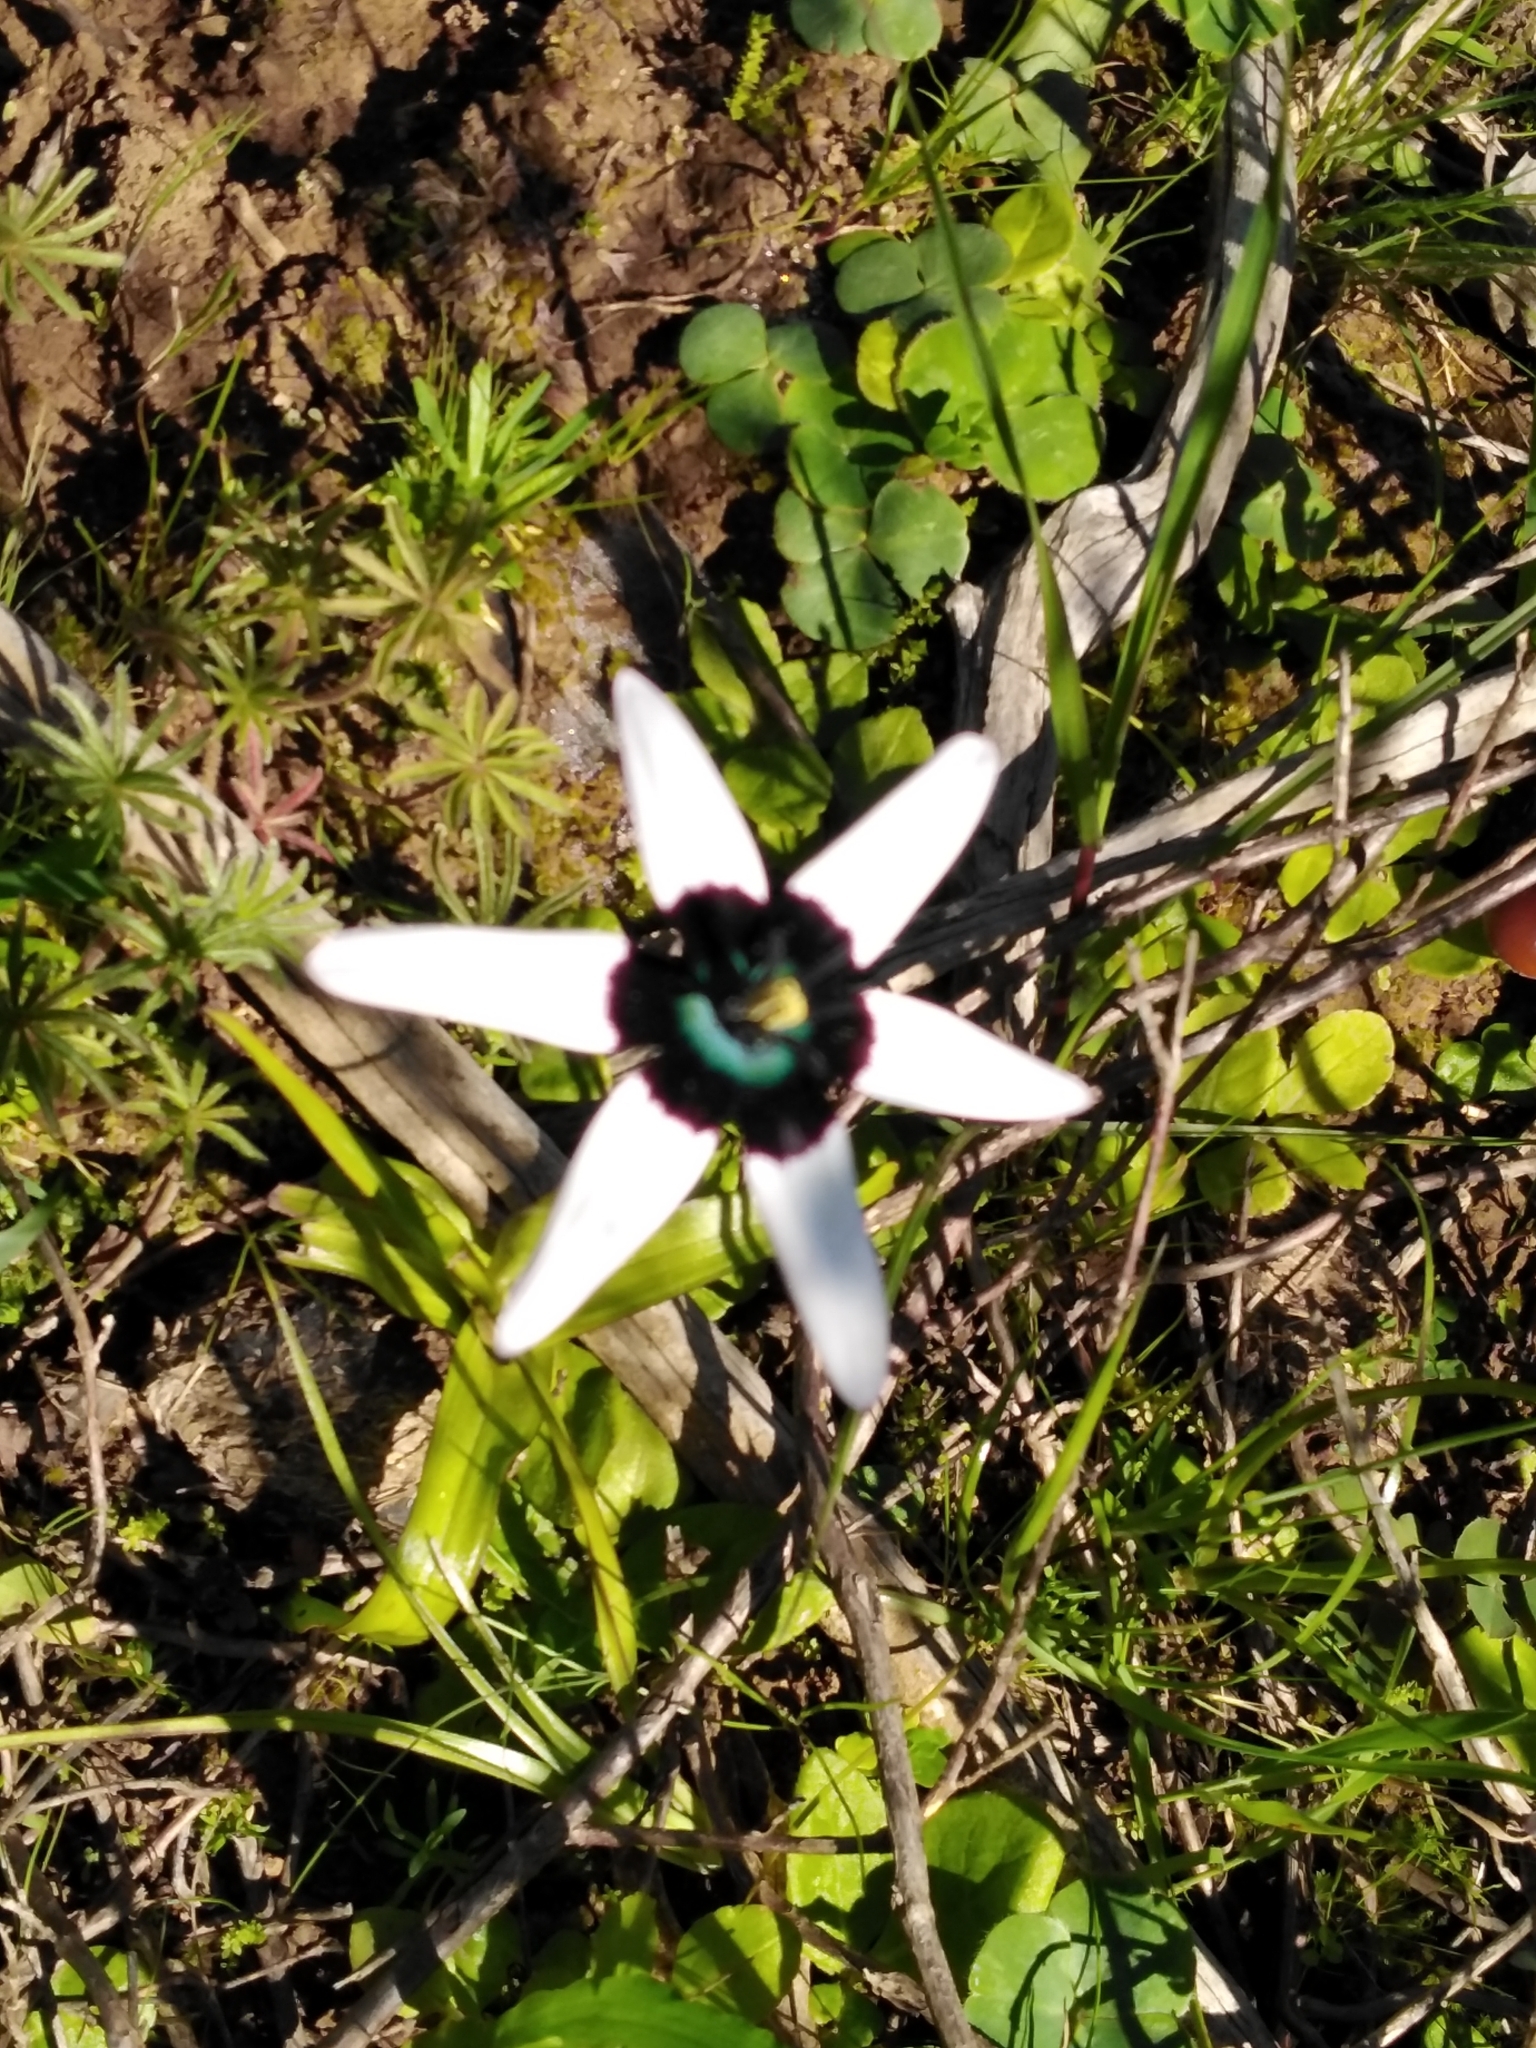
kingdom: Plantae
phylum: Tracheophyta
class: Liliopsida
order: Asparagales
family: Hypoxidaceae
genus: Pauridia
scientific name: Pauridia capensis
